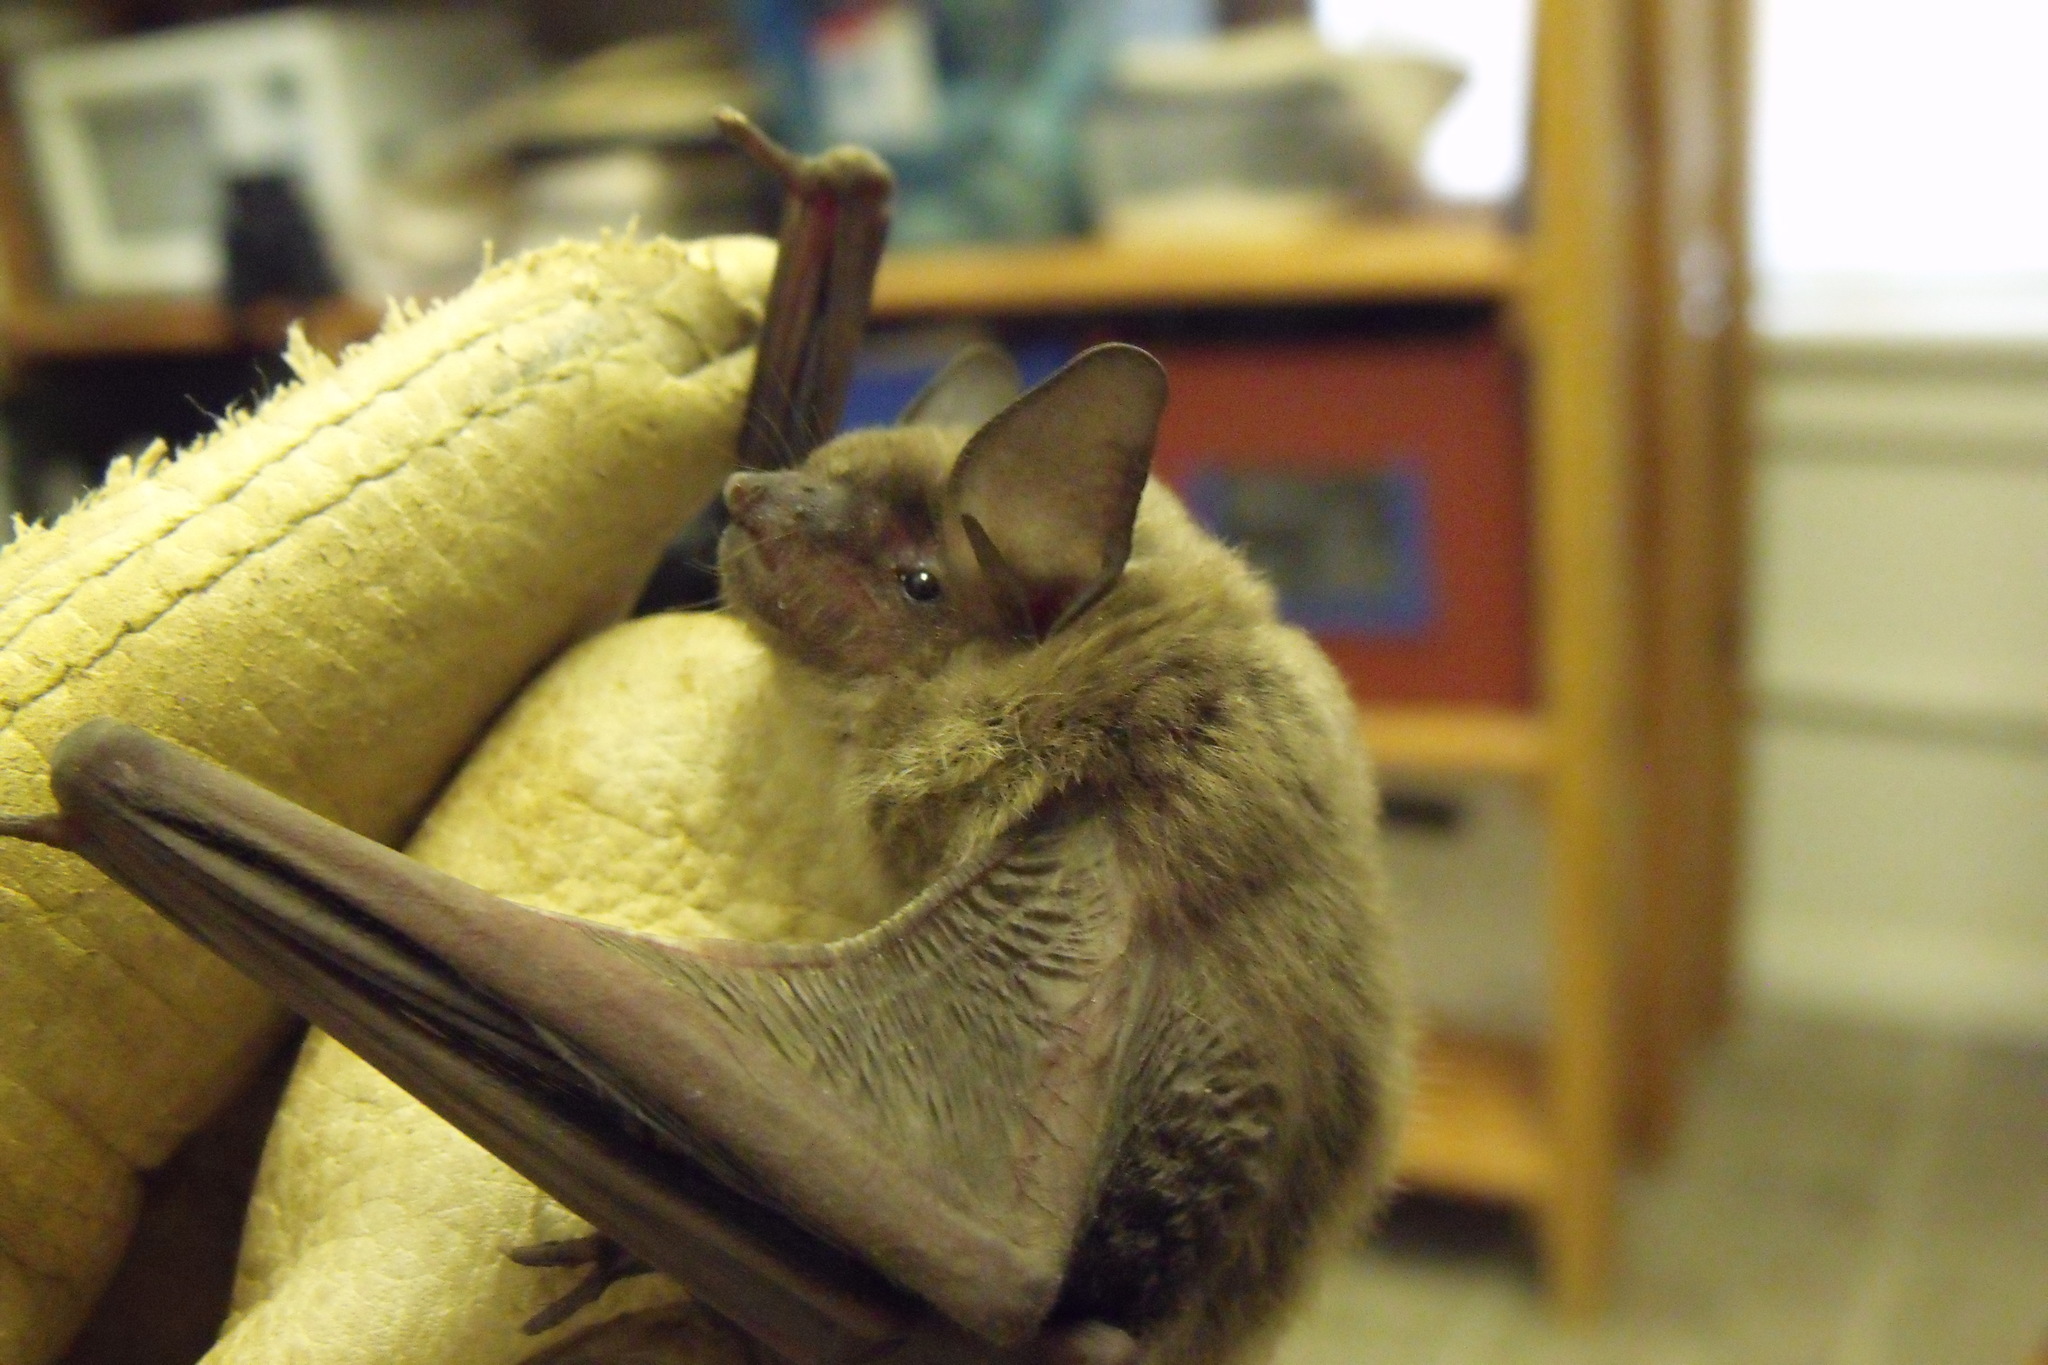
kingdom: Animalia
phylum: Chordata
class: Mammalia
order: Chiroptera
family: Vespertilionidae
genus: Perimyotis
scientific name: Perimyotis subflavus
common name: Eastern pipistrelle
